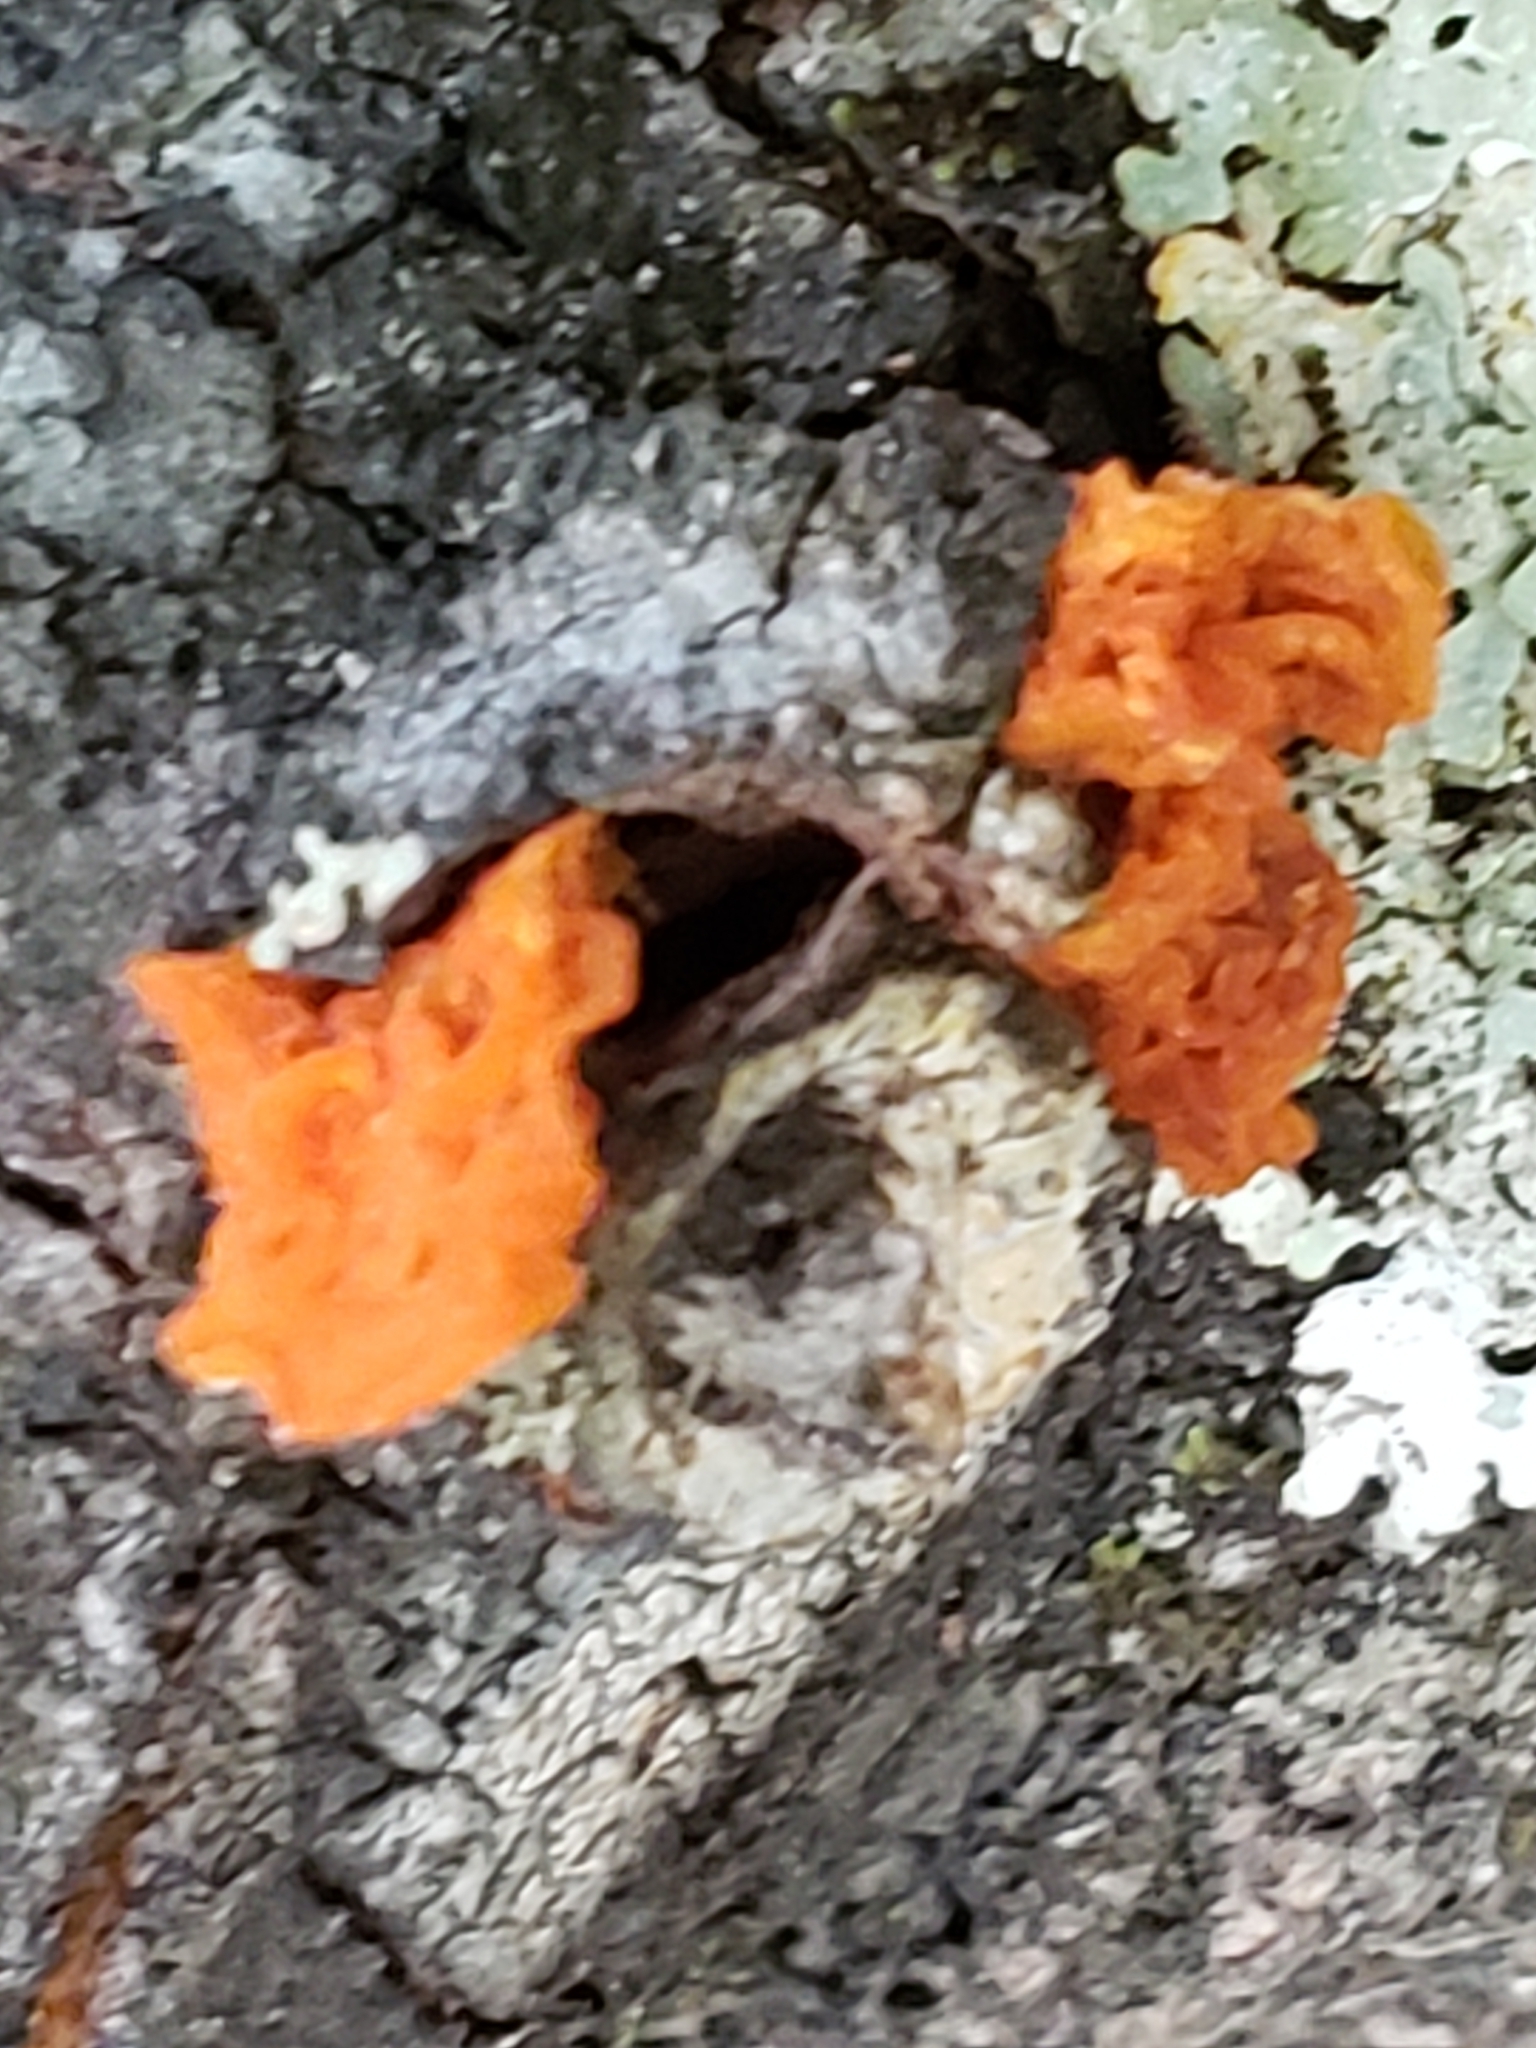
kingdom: Fungi
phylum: Basidiomycota
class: Tremellomycetes
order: Tremellales
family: Tremellaceae
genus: Tremella
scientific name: Tremella mesenterica
